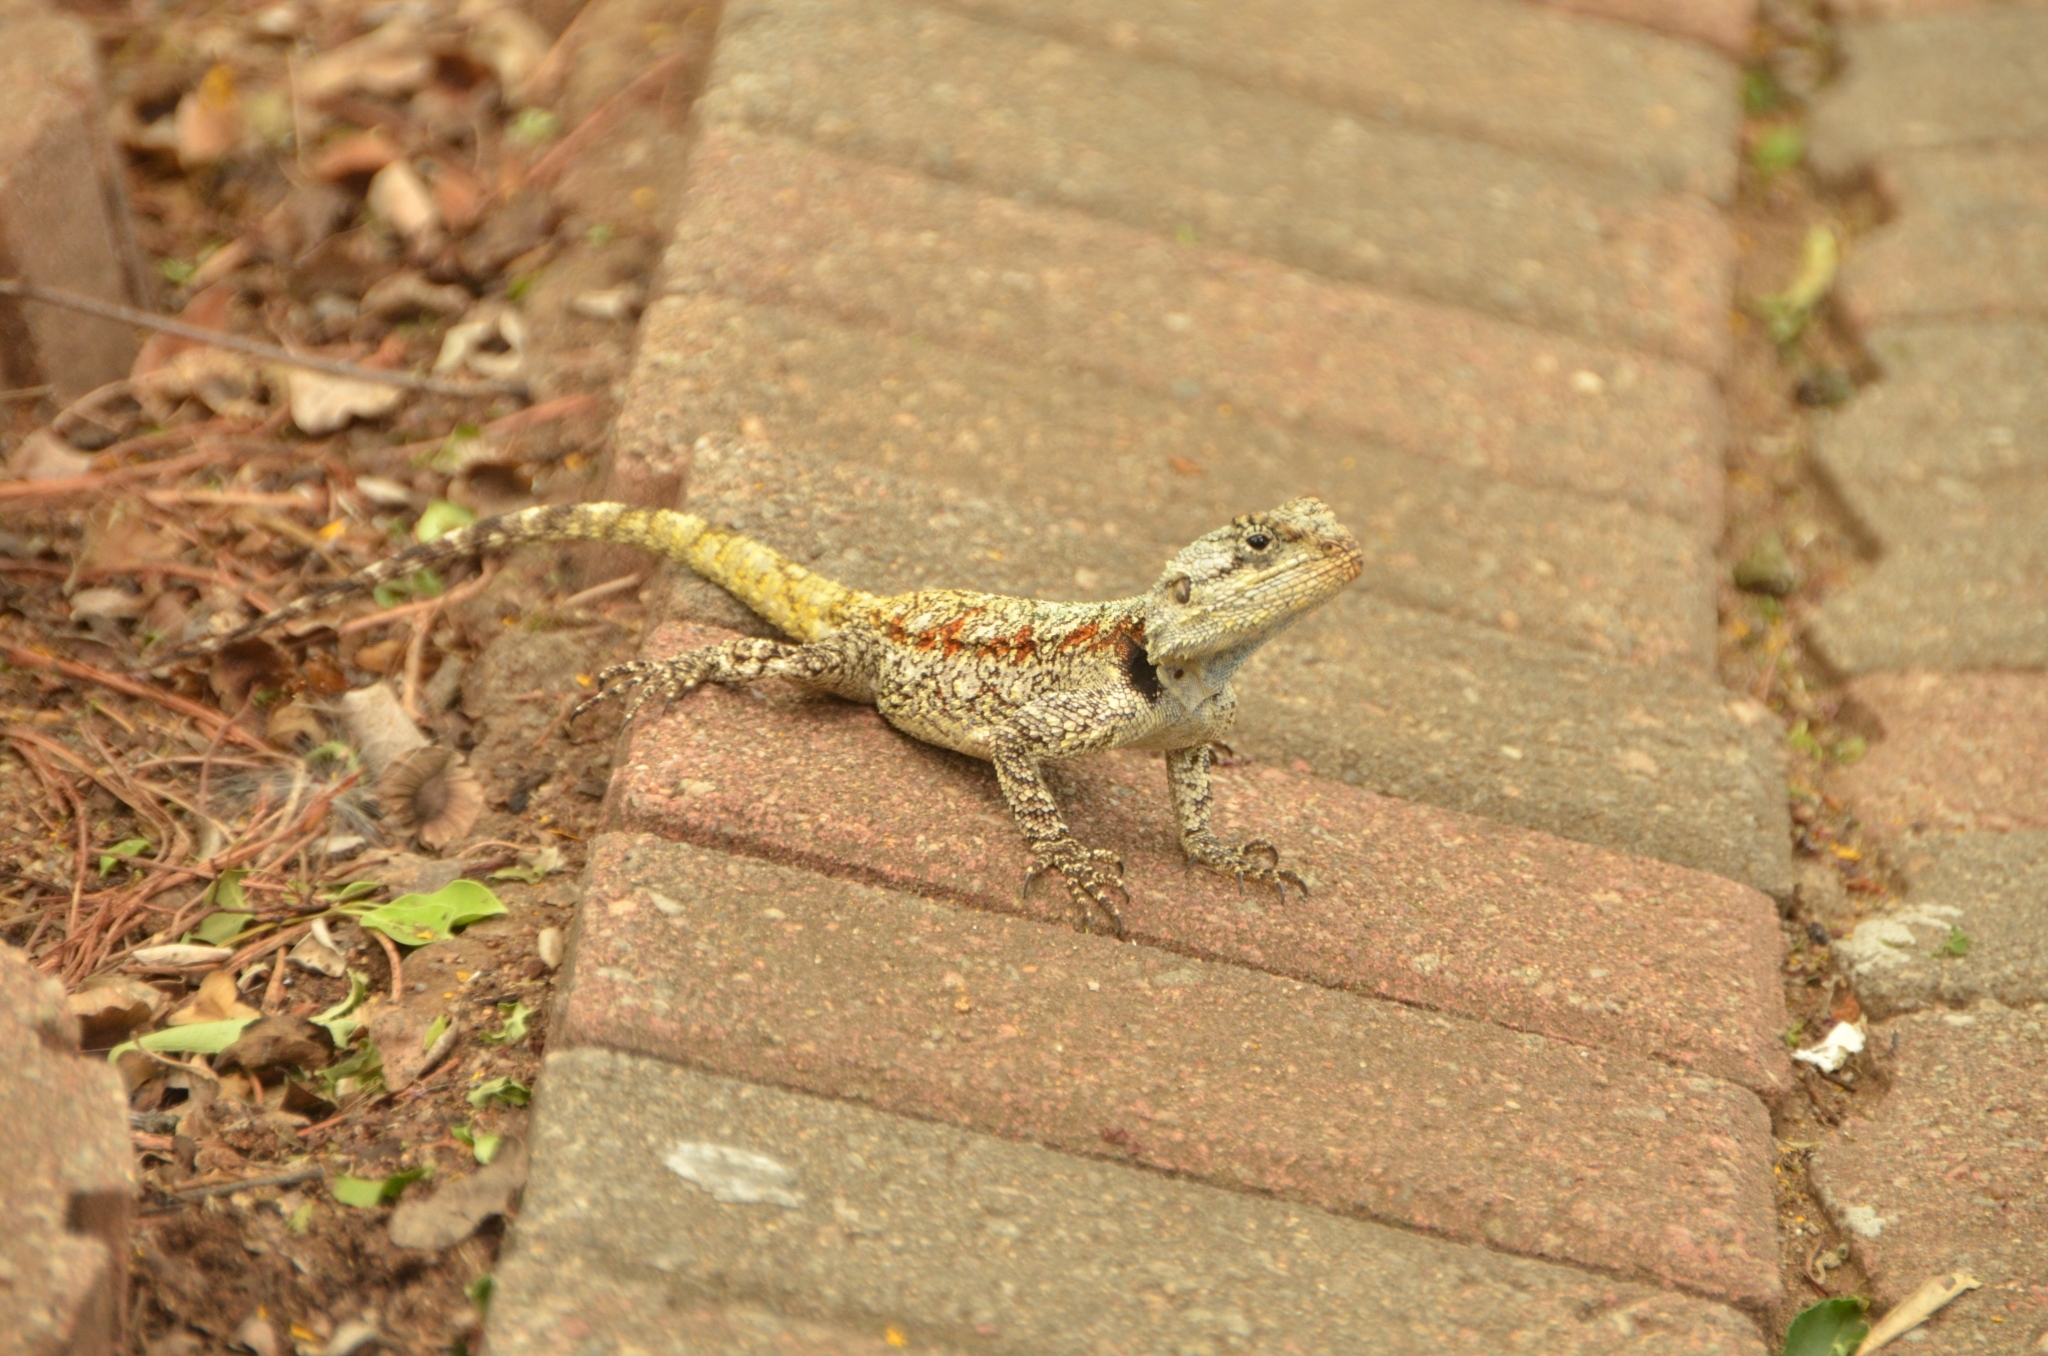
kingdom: Animalia
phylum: Chordata
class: Squamata
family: Agamidae
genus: Acanthocercus
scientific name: Acanthocercus atricollis
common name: Southern tree agama
